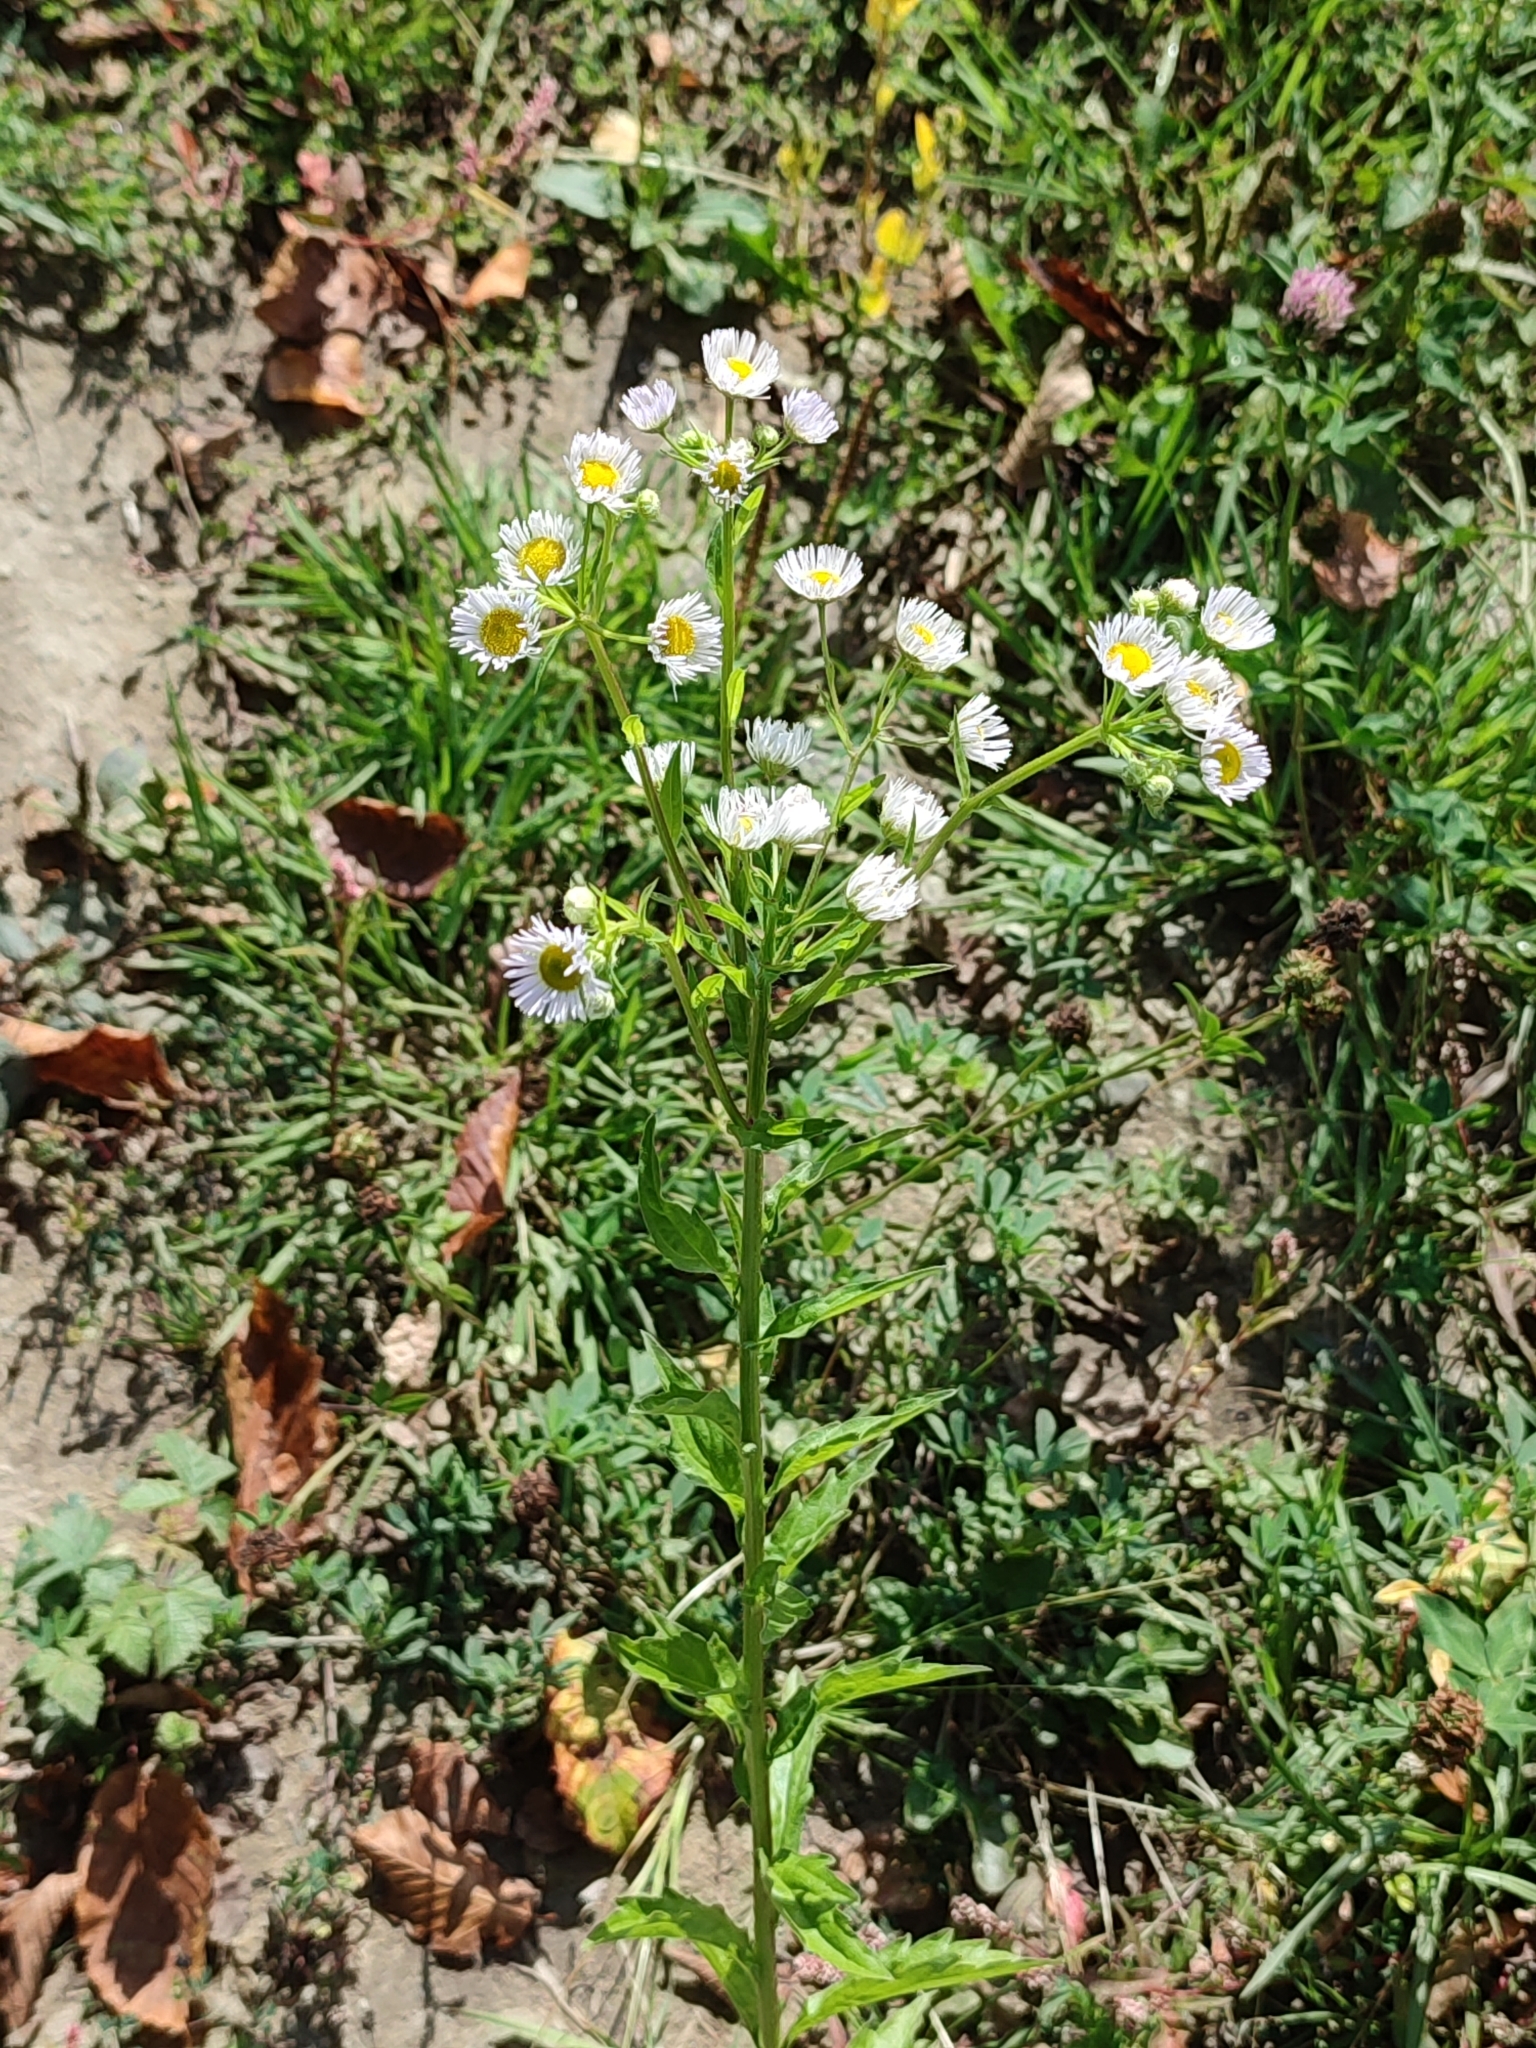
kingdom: Plantae
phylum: Tracheophyta
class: Magnoliopsida
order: Asterales
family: Asteraceae
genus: Erigeron
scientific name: Erigeron annuus
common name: Tall fleabane
